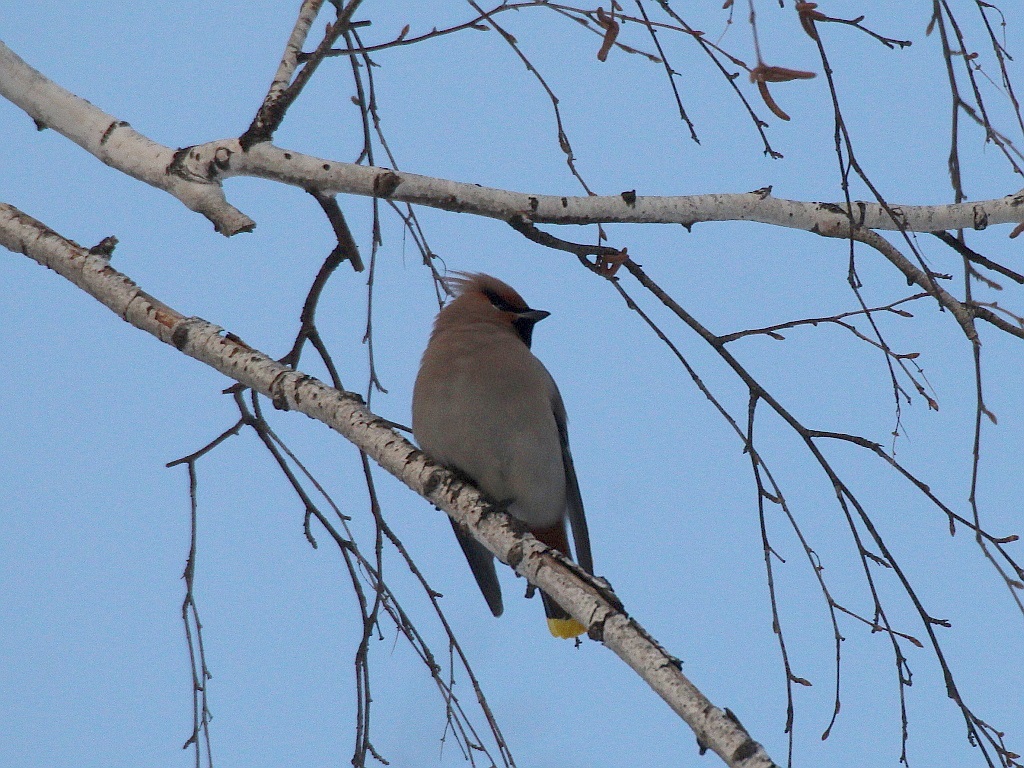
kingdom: Animalia
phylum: Chordata
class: Aves
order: Passeriformes
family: Bombycillidae
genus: Bombycilla
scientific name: Bombycilla garrulus
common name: Bohemian waxwing
